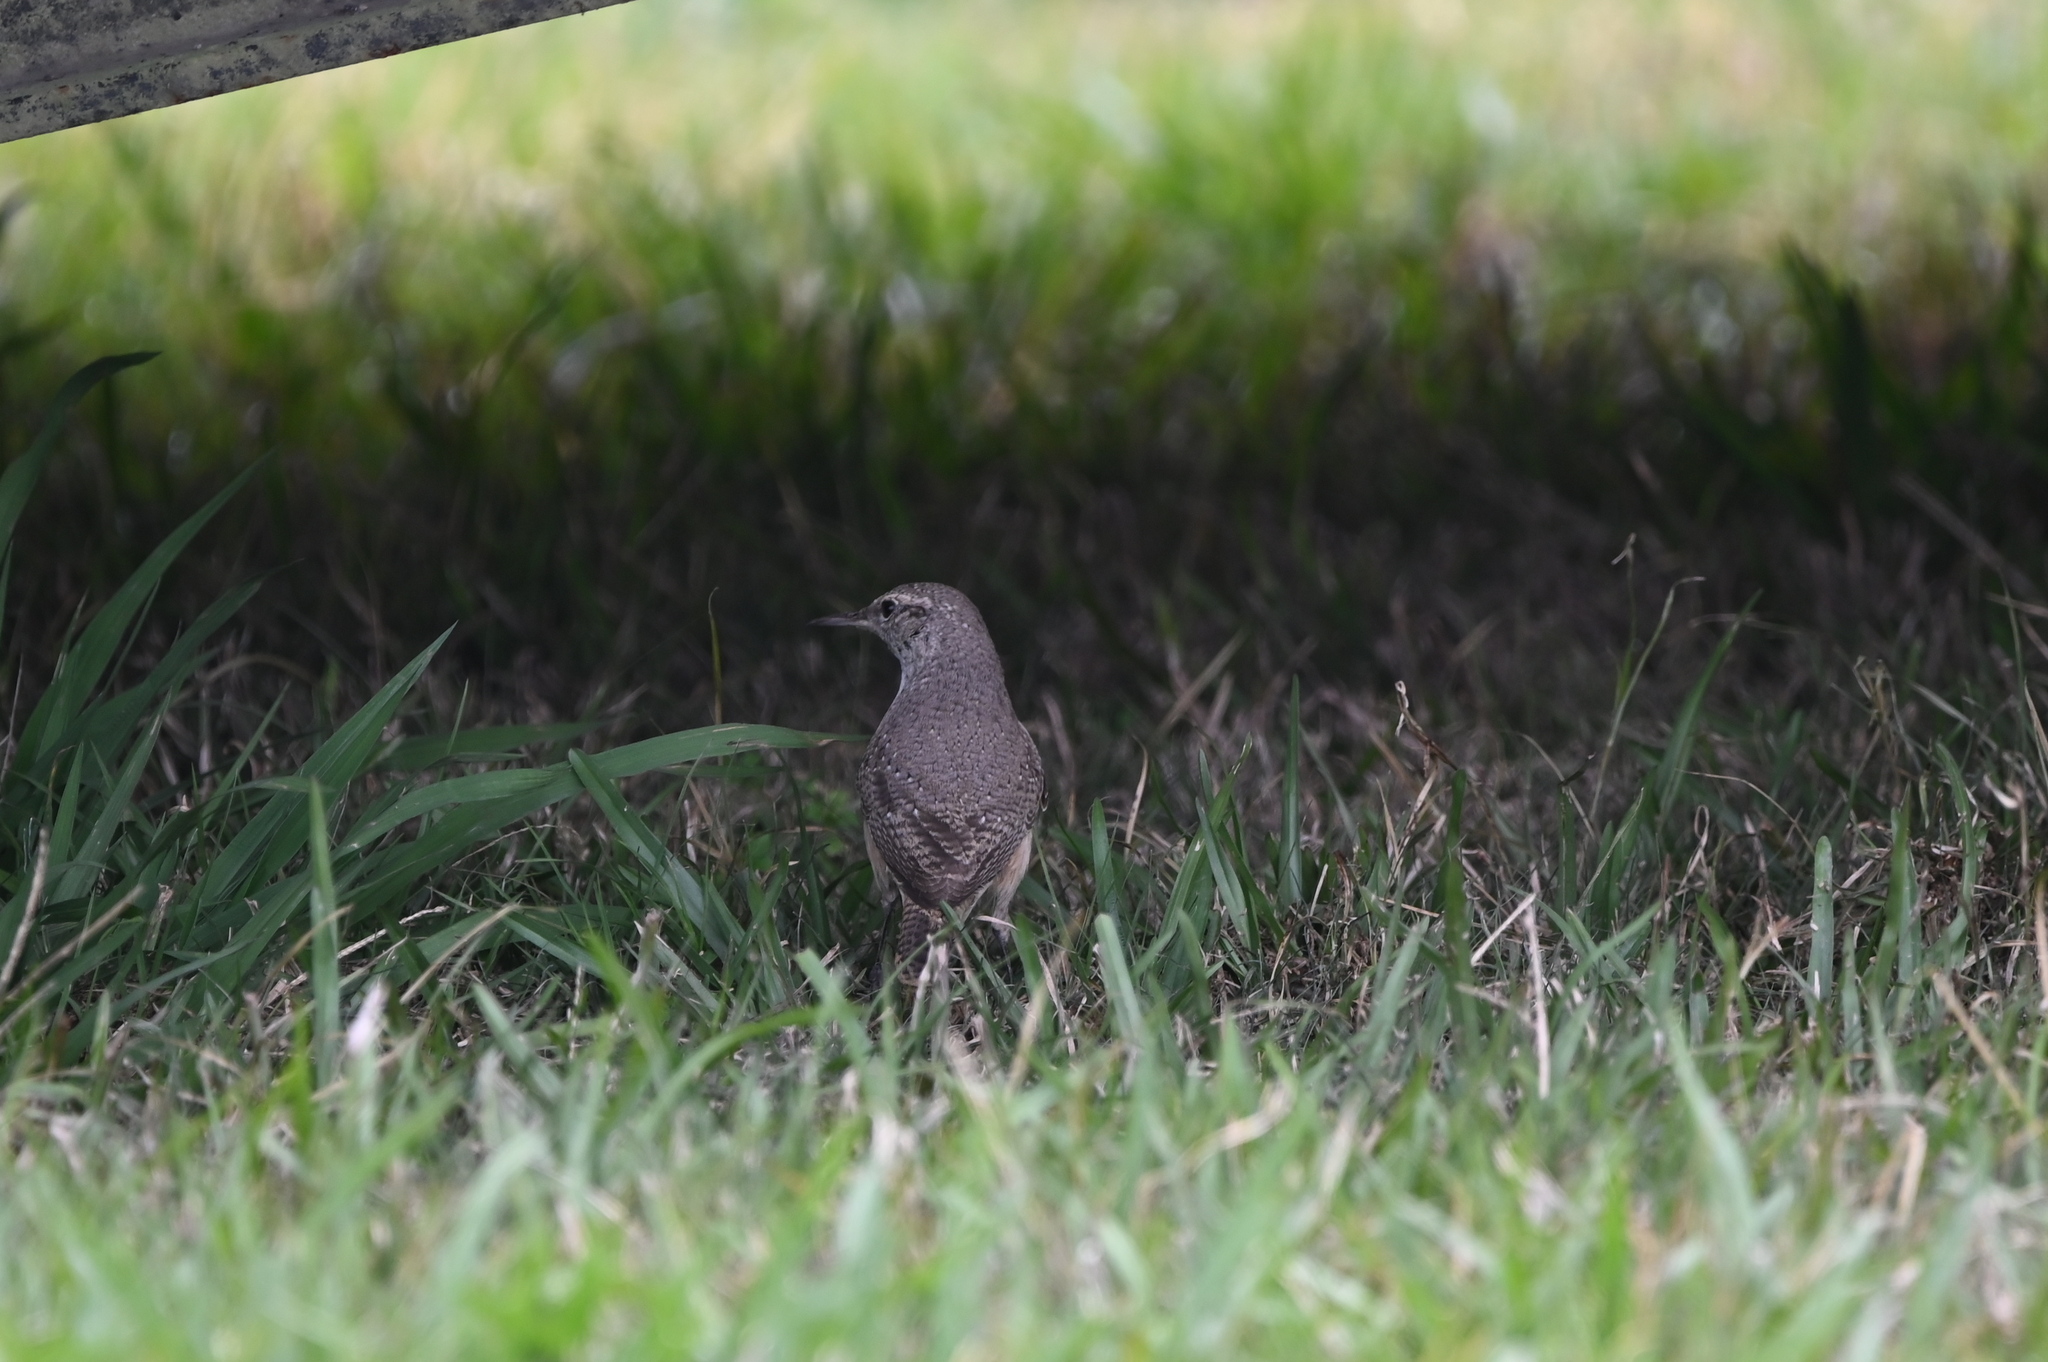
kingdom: Animalia
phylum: Chordata
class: Aves
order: Passeriformes
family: Troglodytidae
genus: Salpinctes
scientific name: Salpinctes obsoletus
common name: Rock wren
